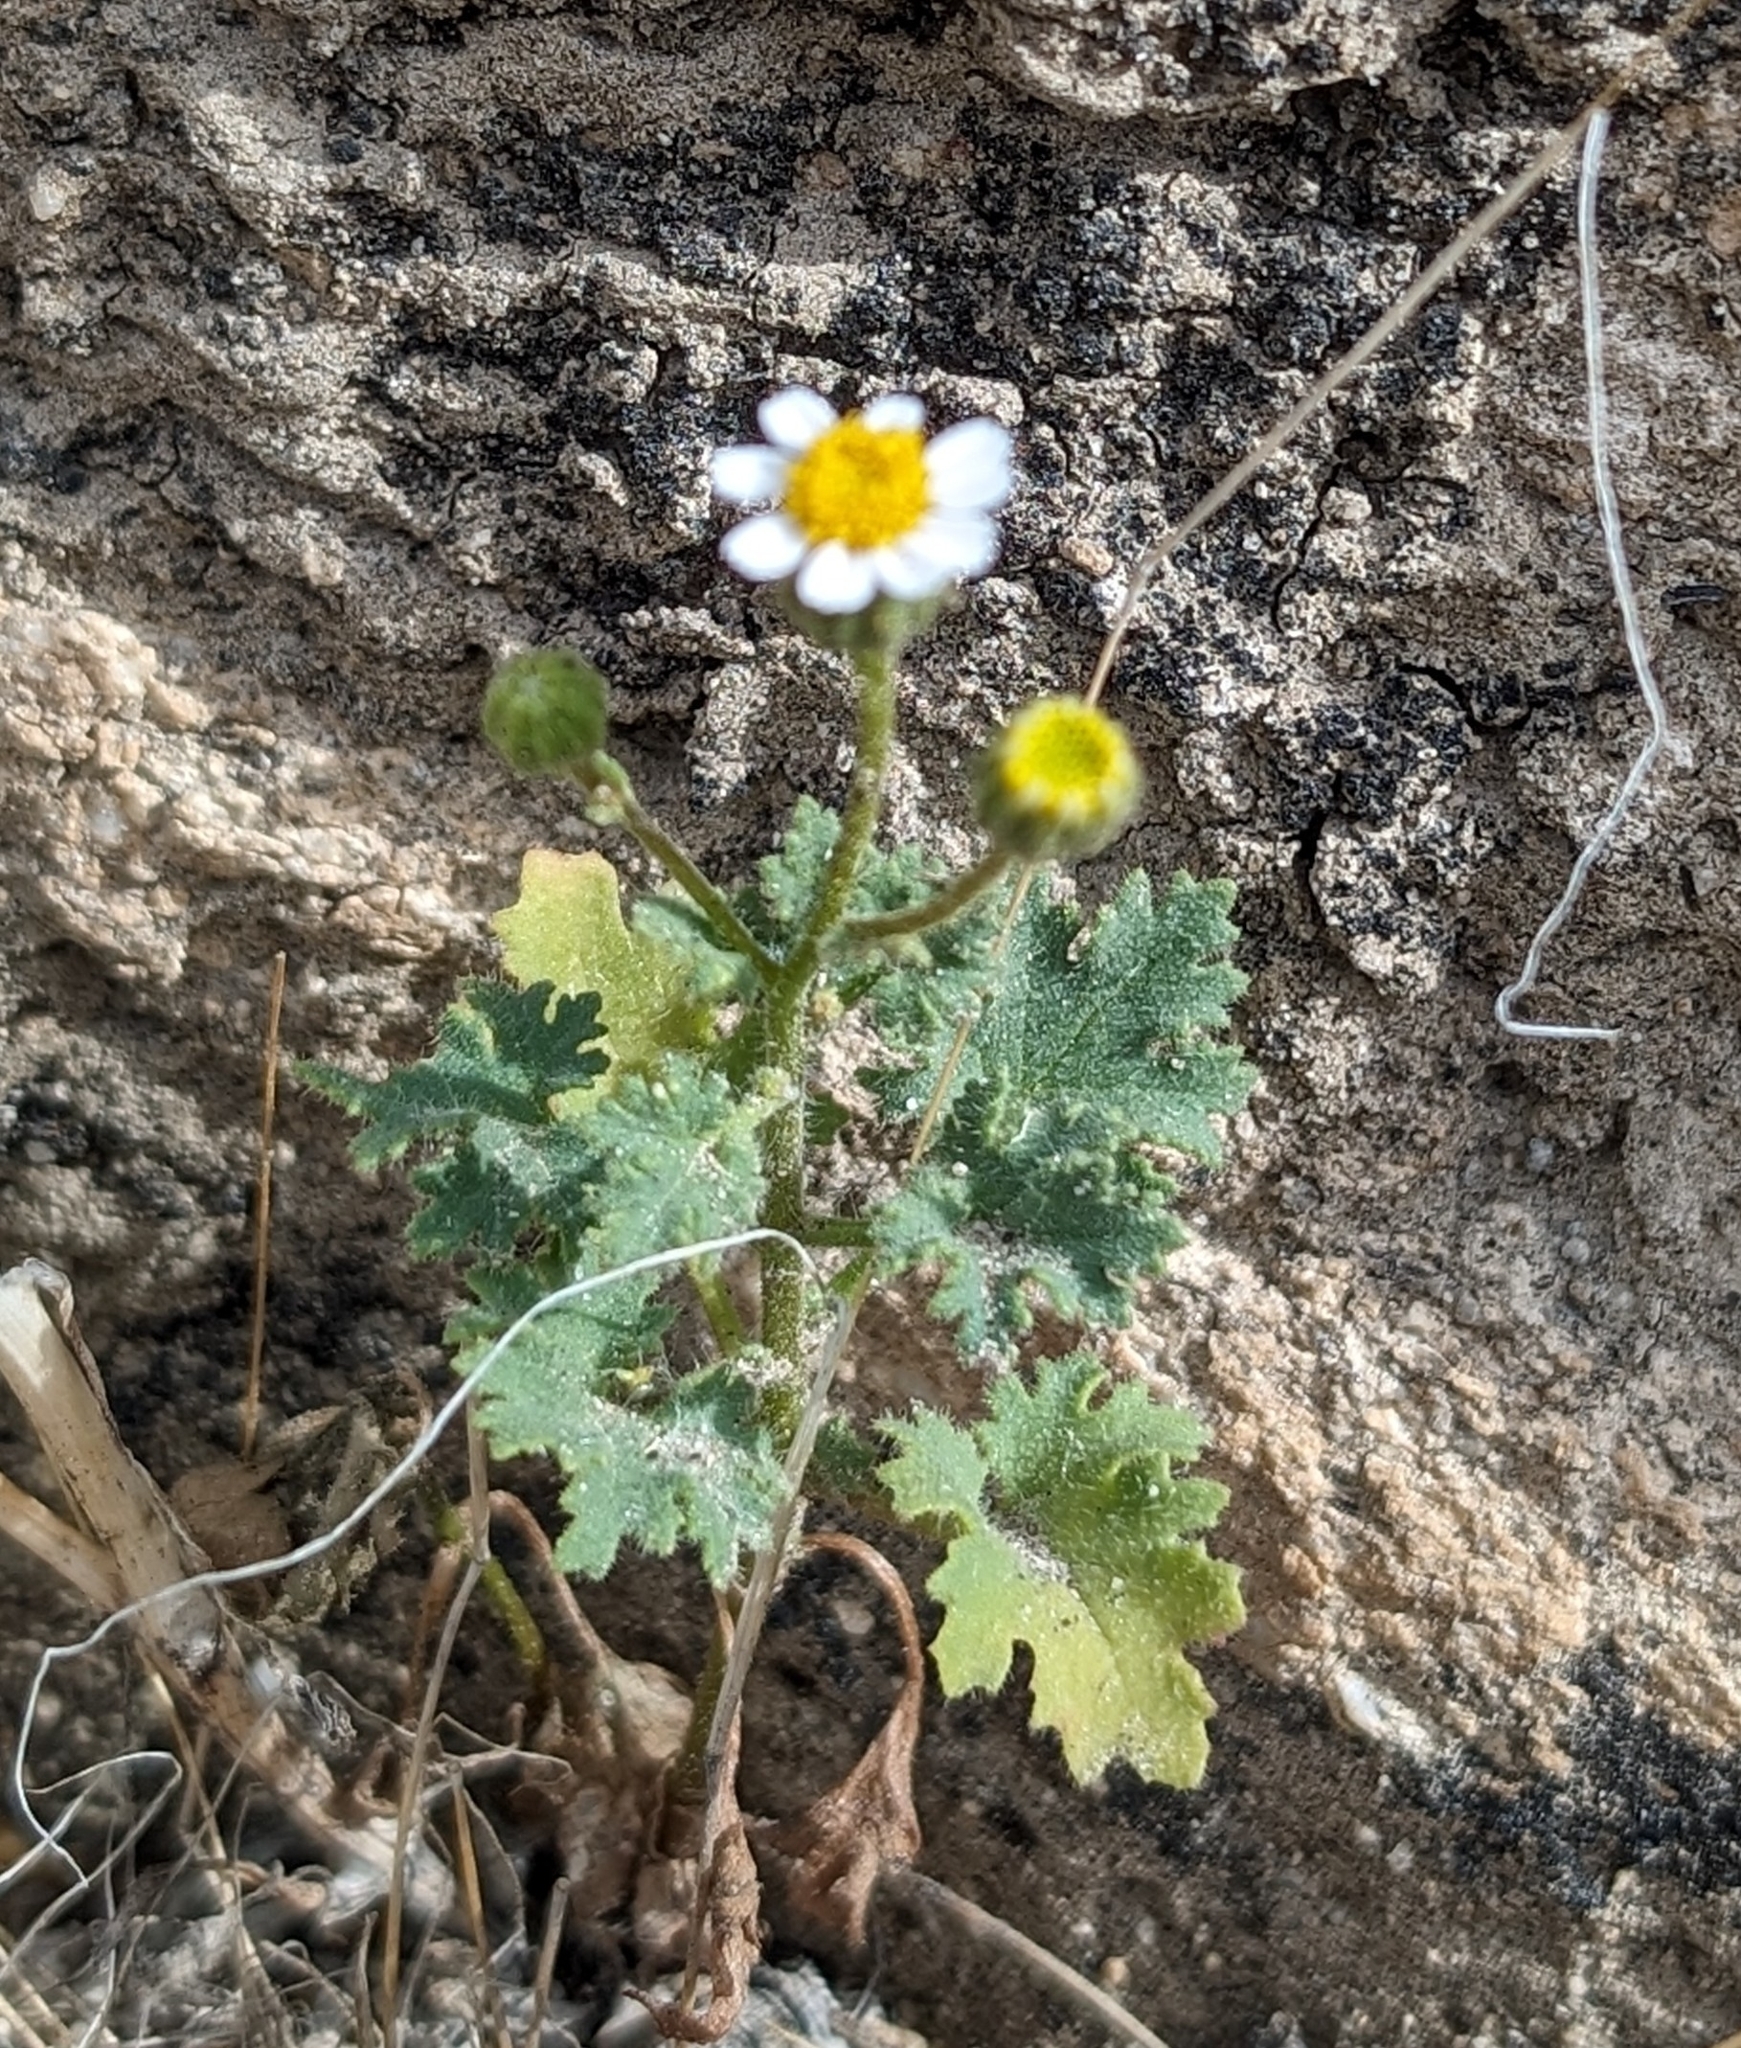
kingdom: Plantae
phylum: Tracheophyta
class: Magnoliopsida
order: Asterales
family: Asteraceae
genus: Laphamia
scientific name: Laphamia emoryi
